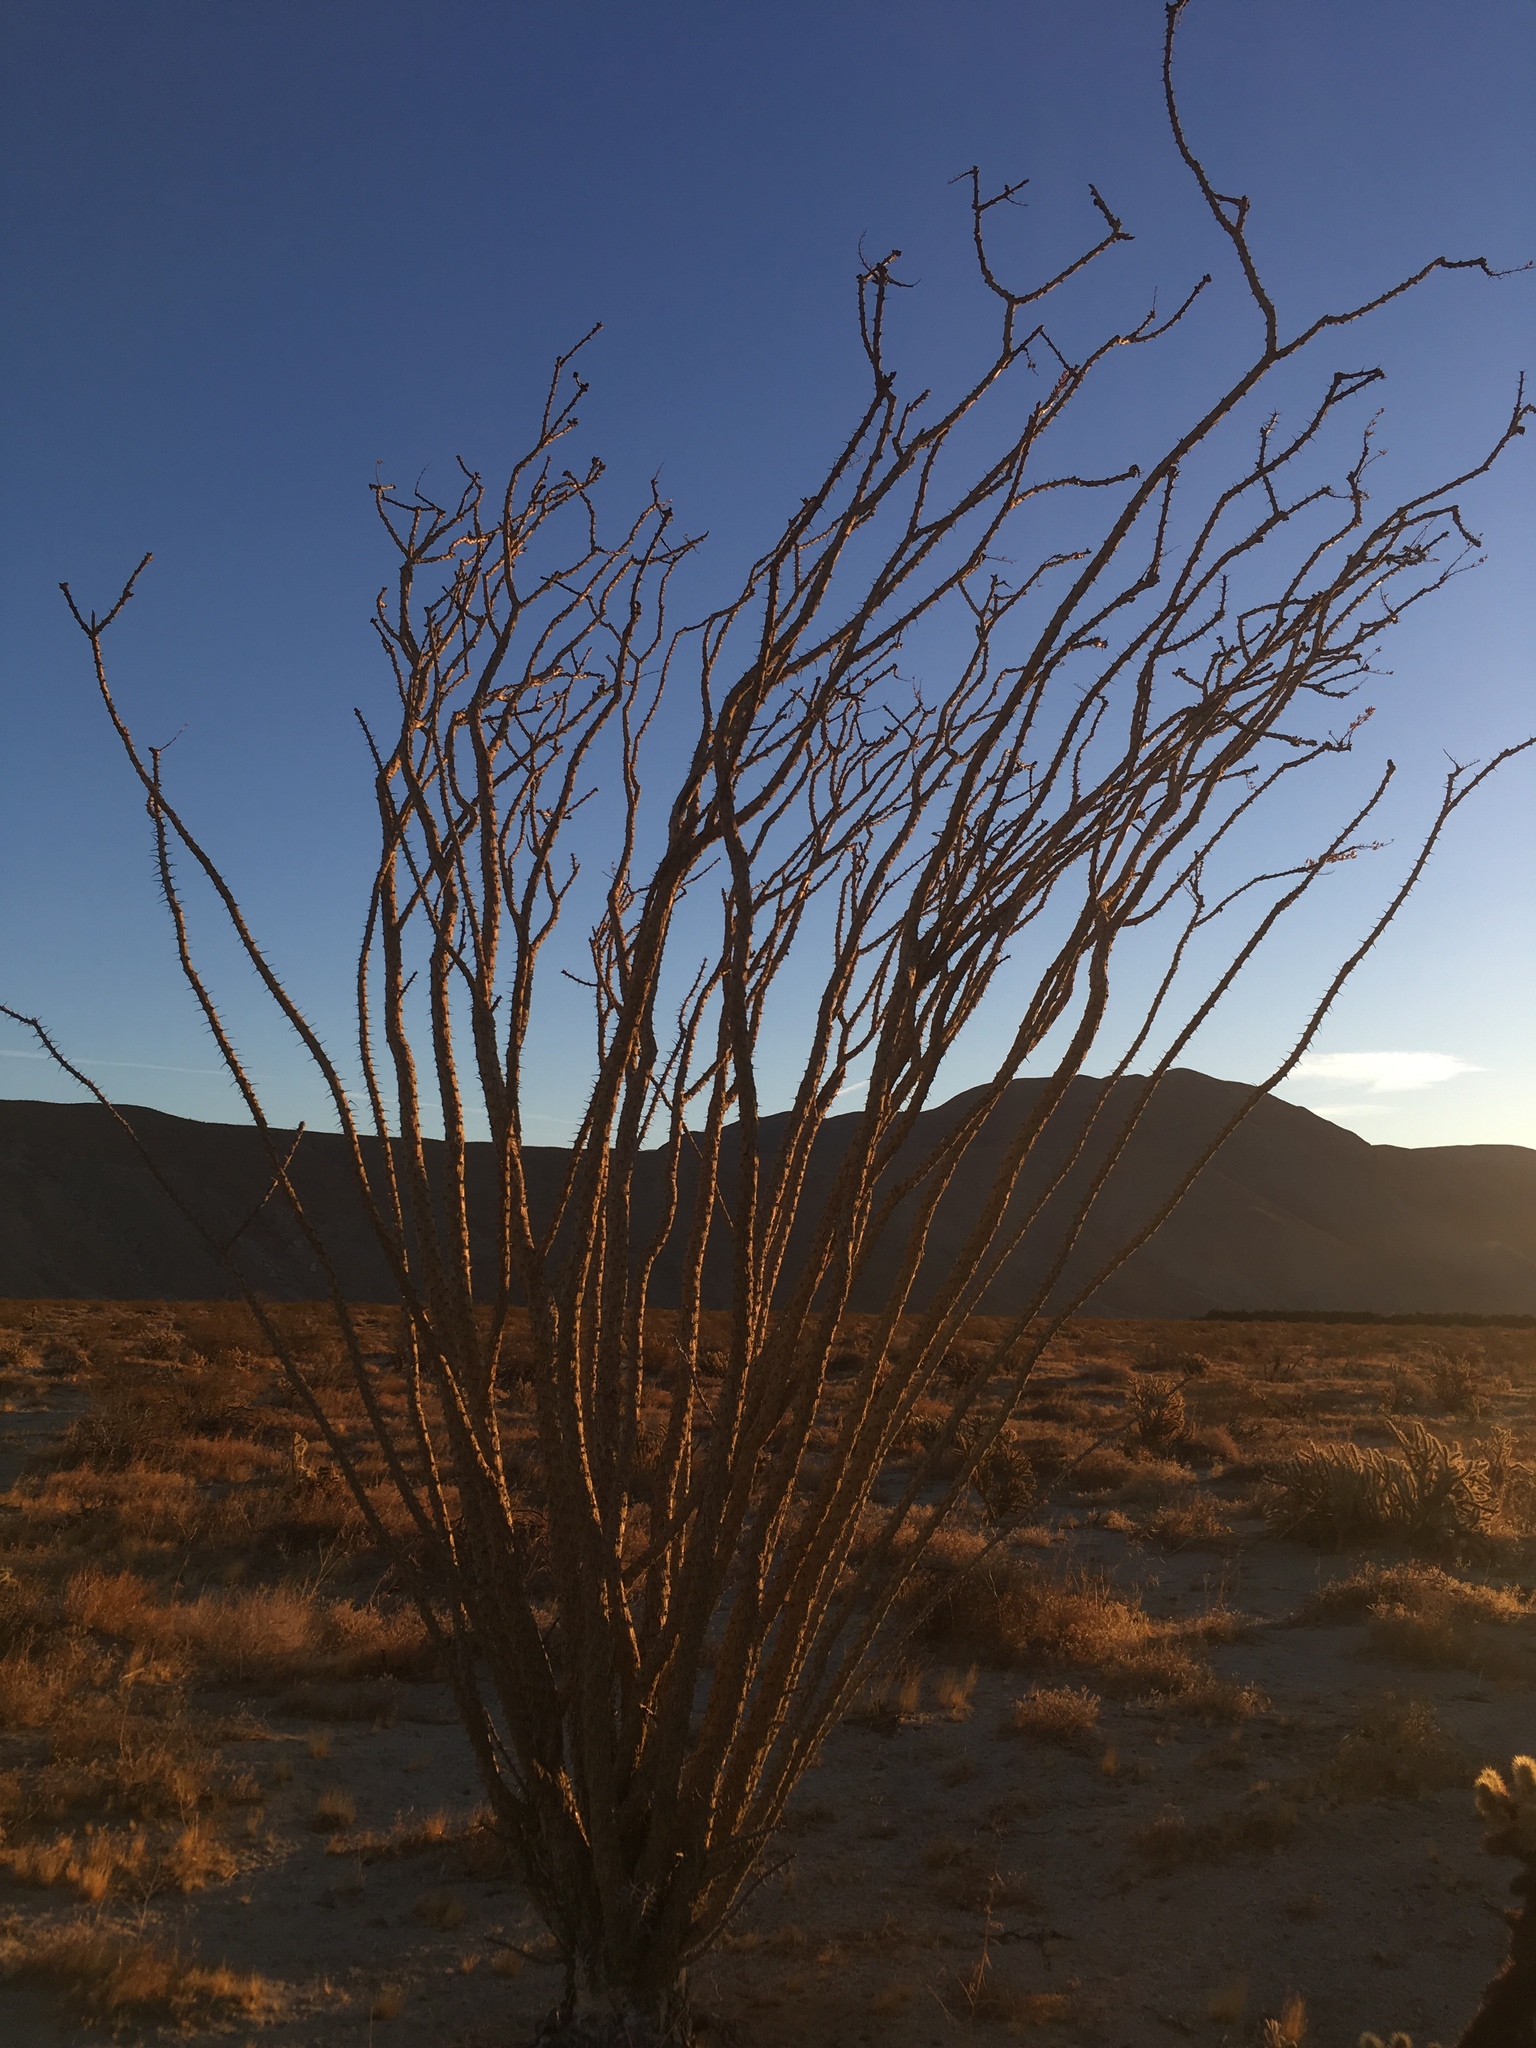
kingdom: Plantae
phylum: Tracheophyta
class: Magnoliopsida
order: Ericales
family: Fouquieriaceae
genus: Fouquieria
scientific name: Fouquieria splendens
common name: Vine-cactus
